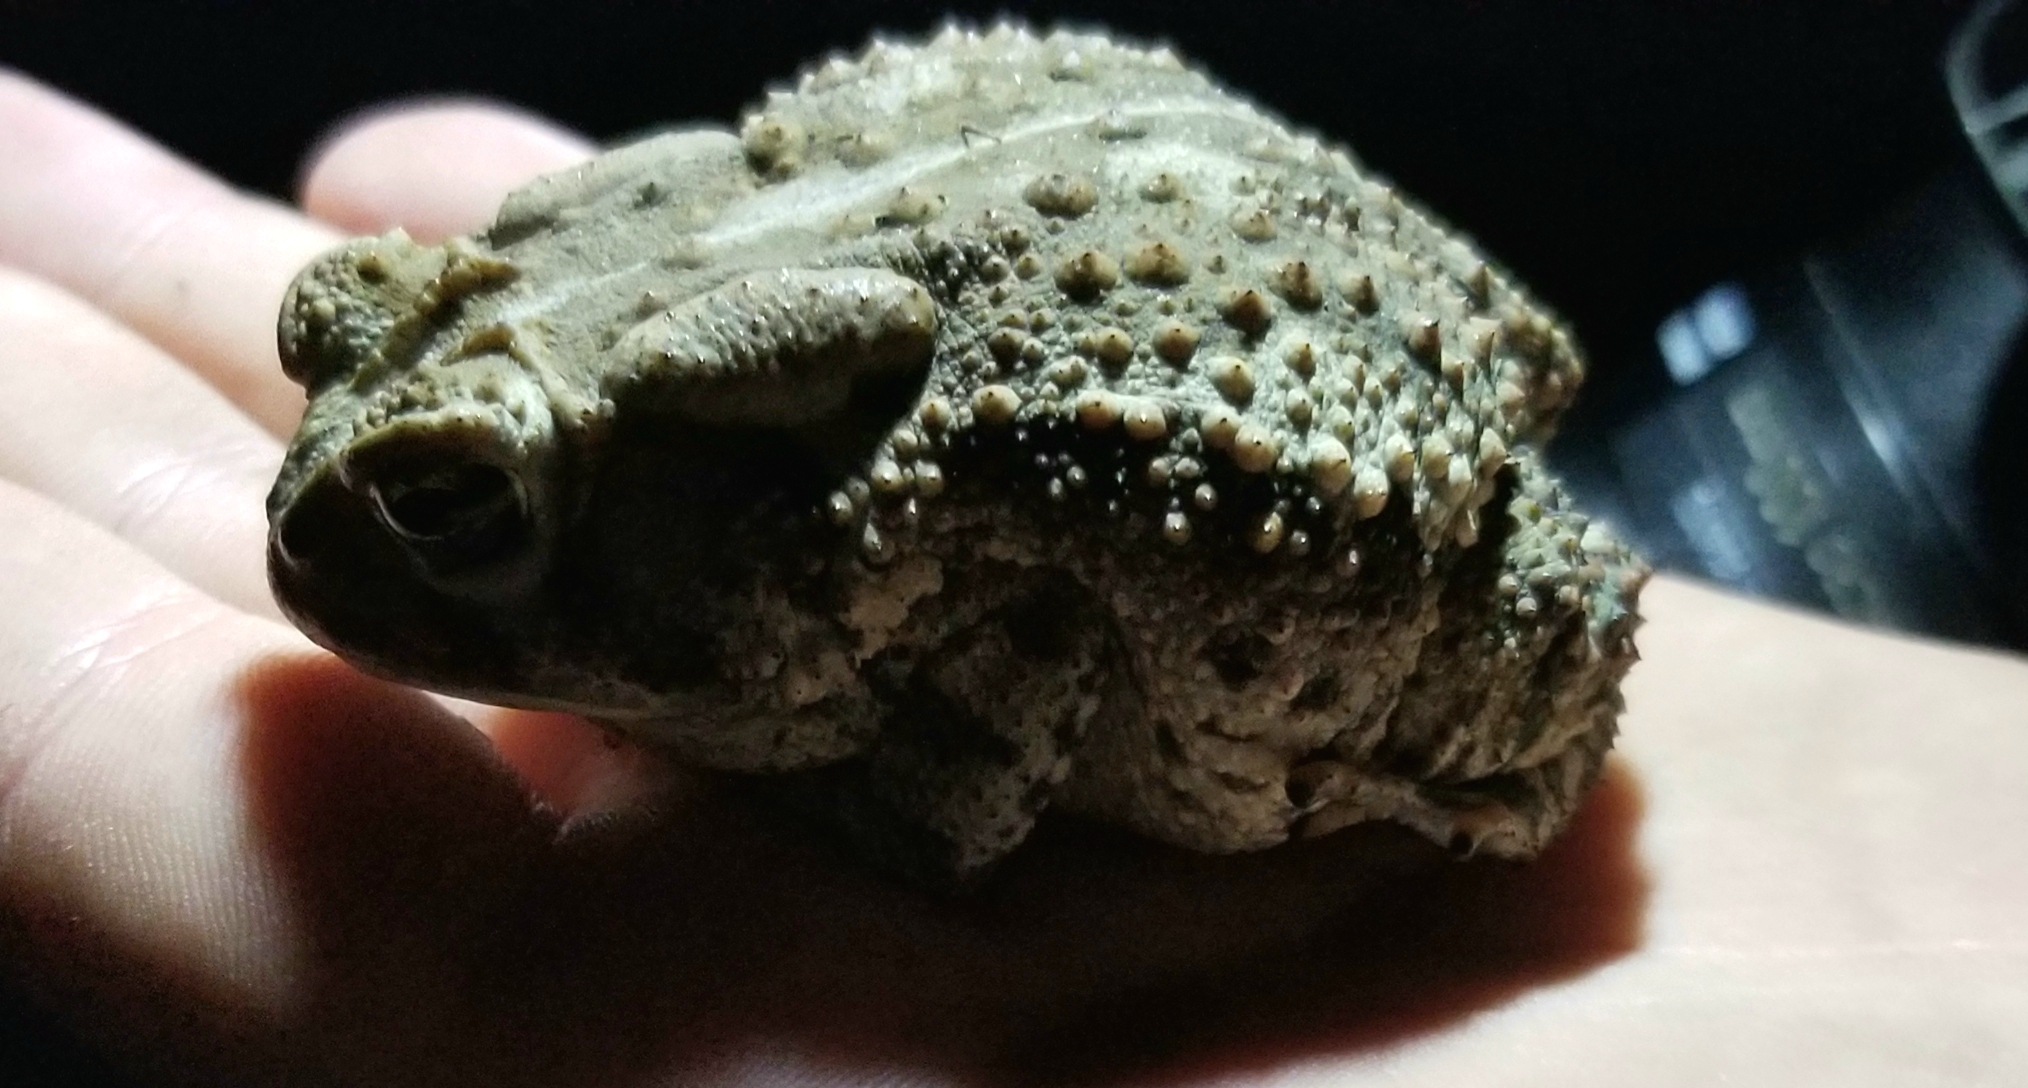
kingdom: Animalia
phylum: Chordata
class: Amphibia
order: Anura
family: Bufonidae
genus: Anaxyrus
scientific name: Anaxyrus fowleri
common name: Fowler's toad
